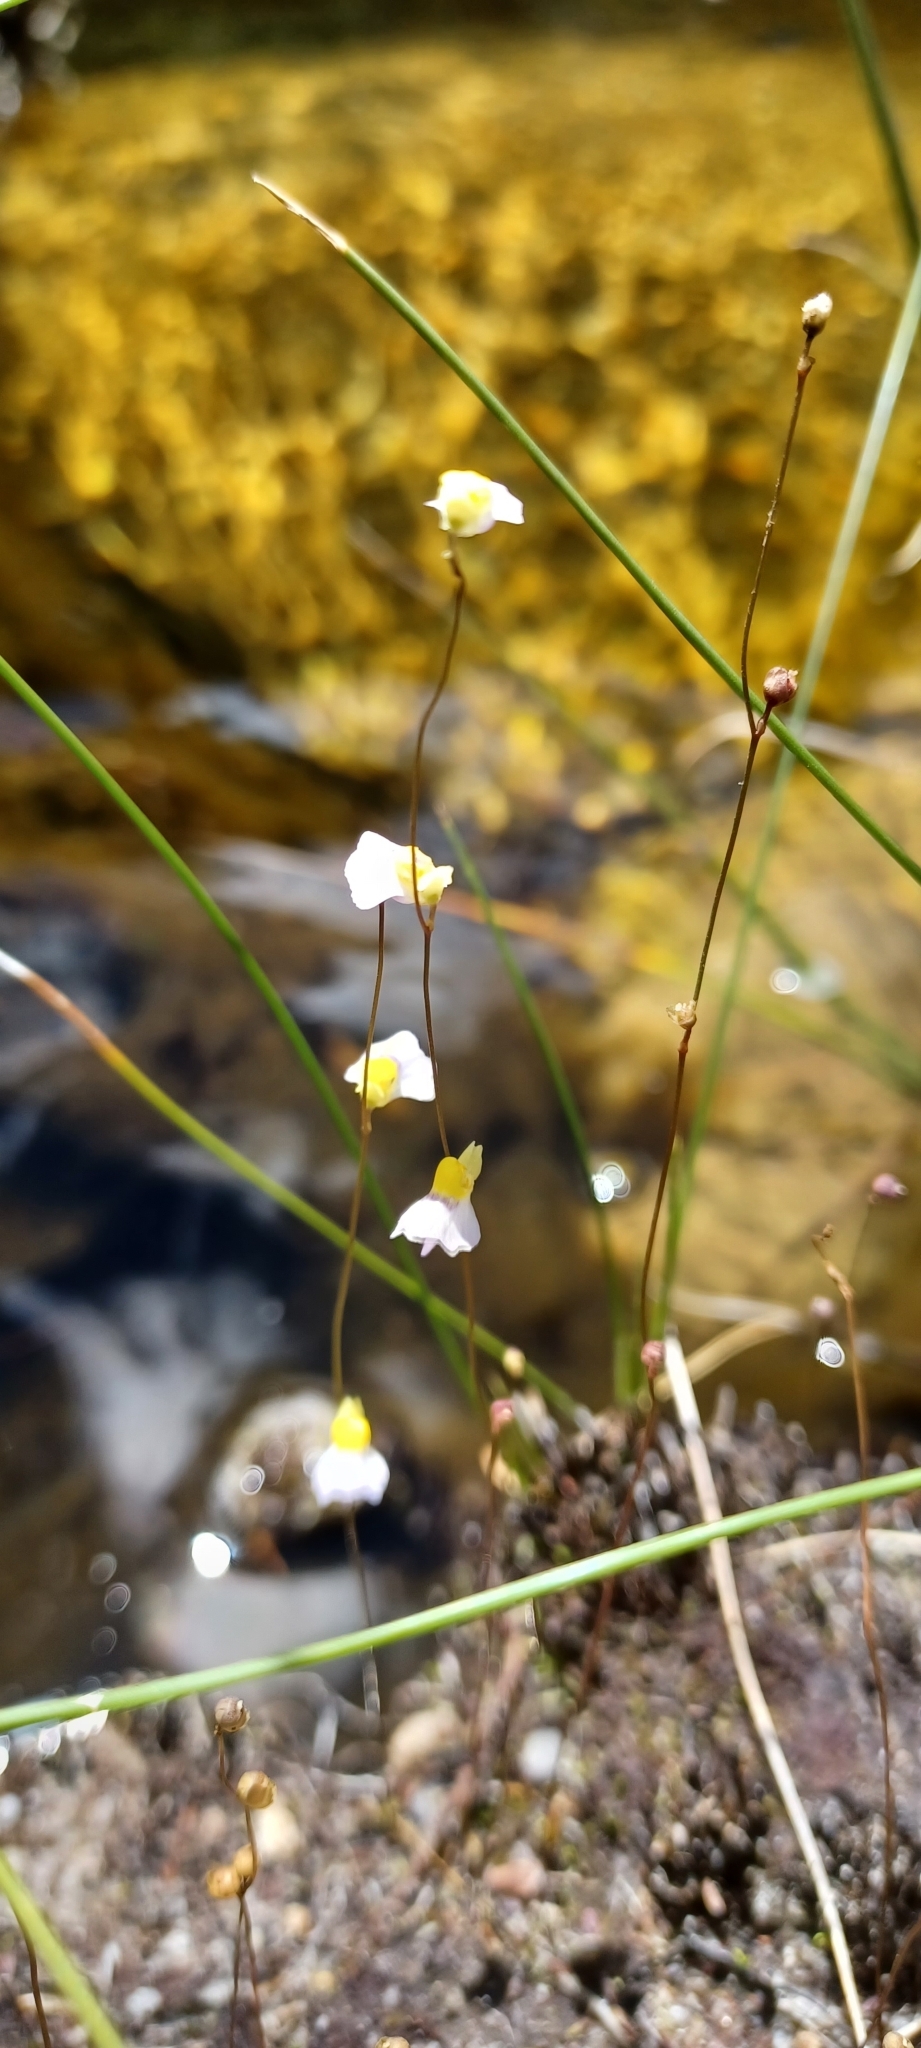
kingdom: Plantae
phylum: Tracheophyta
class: Magnoliopsida
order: Lamiales
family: Lentibulariaceae
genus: Utricularia
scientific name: Utricularia bisquamata
